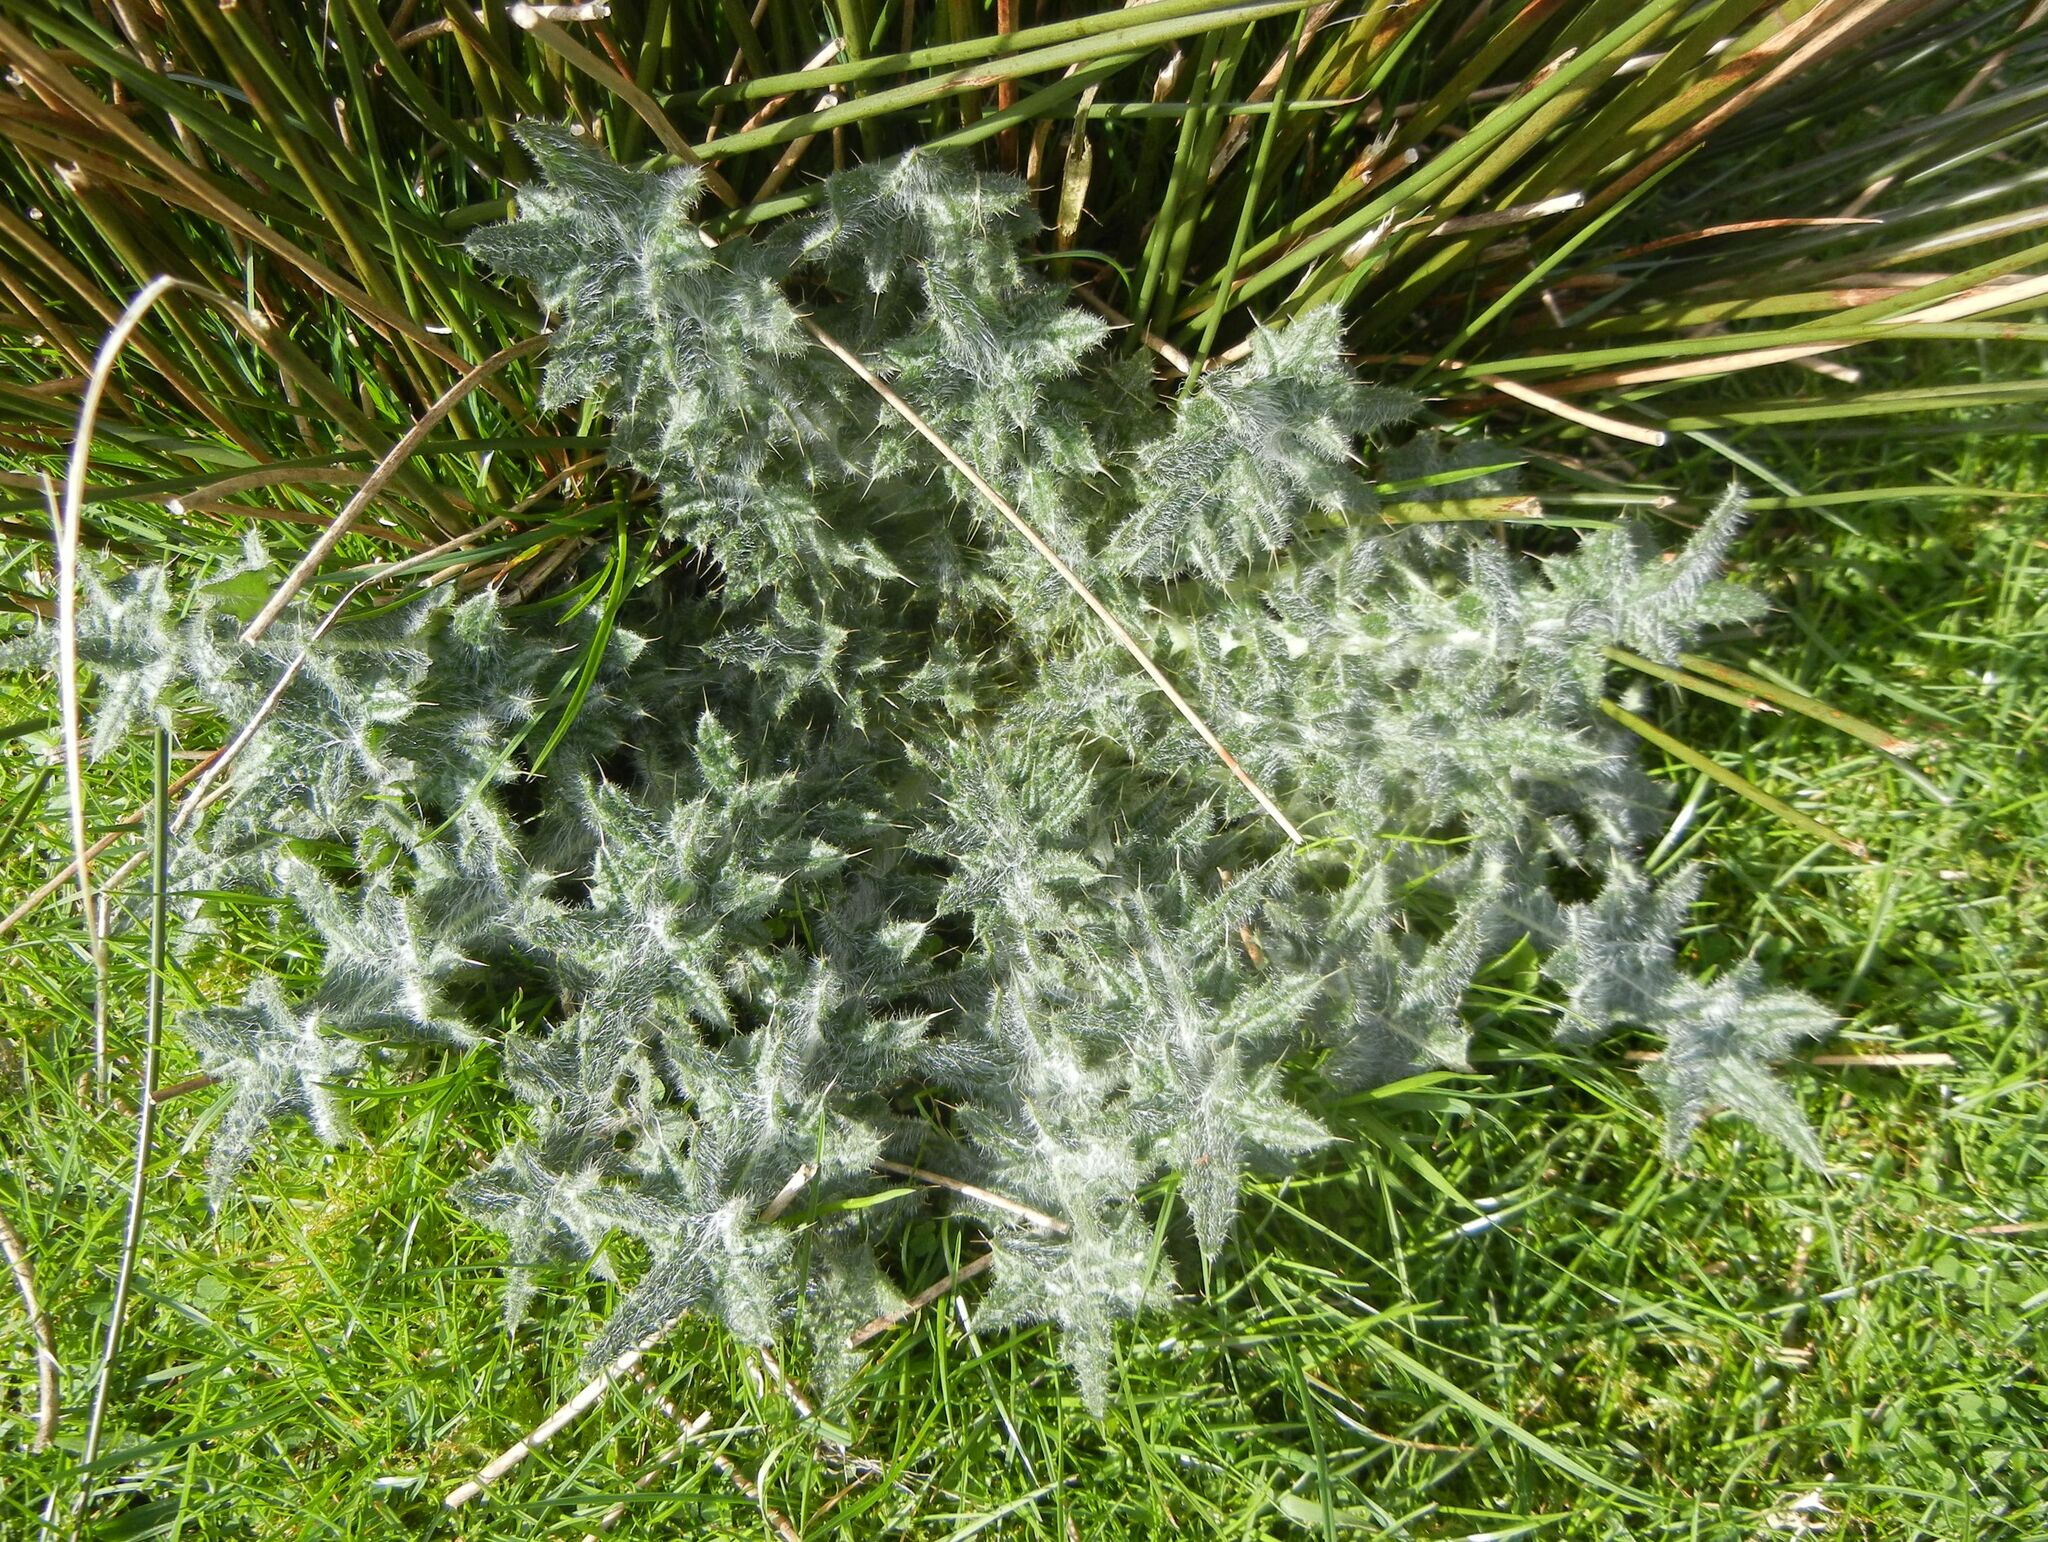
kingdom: Plantae
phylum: Tracheophyta
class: Magnoliopsida
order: Asterales
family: Asteraceae
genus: Cirsium
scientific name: Cirsium vulgare
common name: Bull thistle
